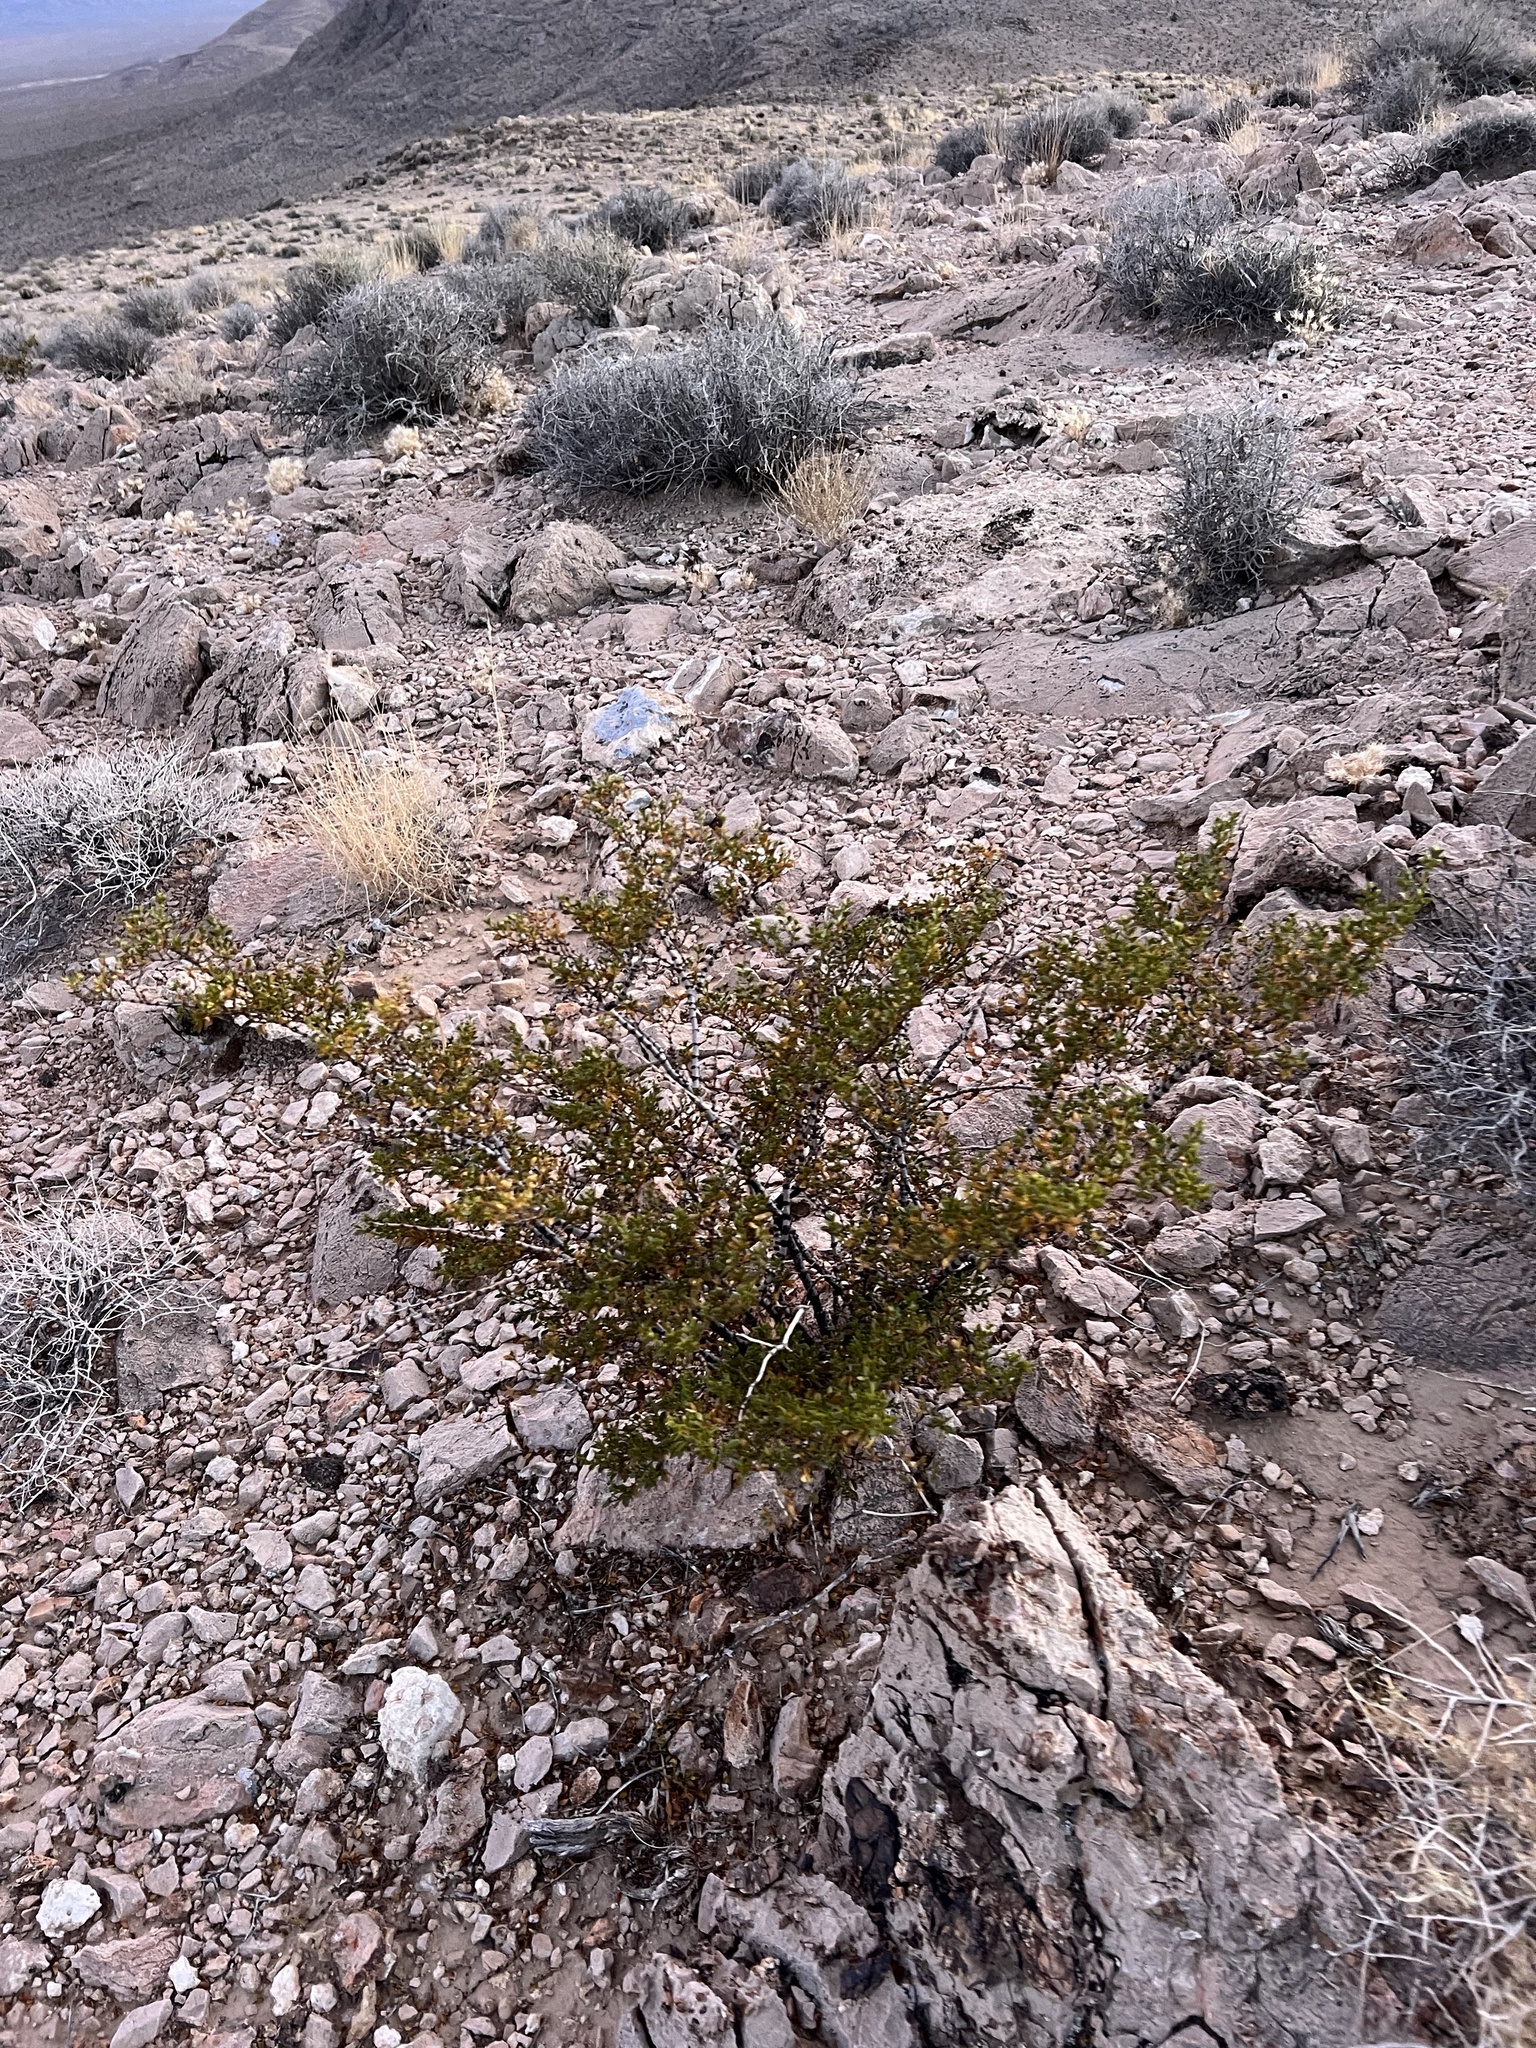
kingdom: Plantae
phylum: Tracheophyta
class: Magnoliopsida
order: Zygophyllales
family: Zygophyllaceae
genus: Larrea
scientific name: Larrea tridentata
